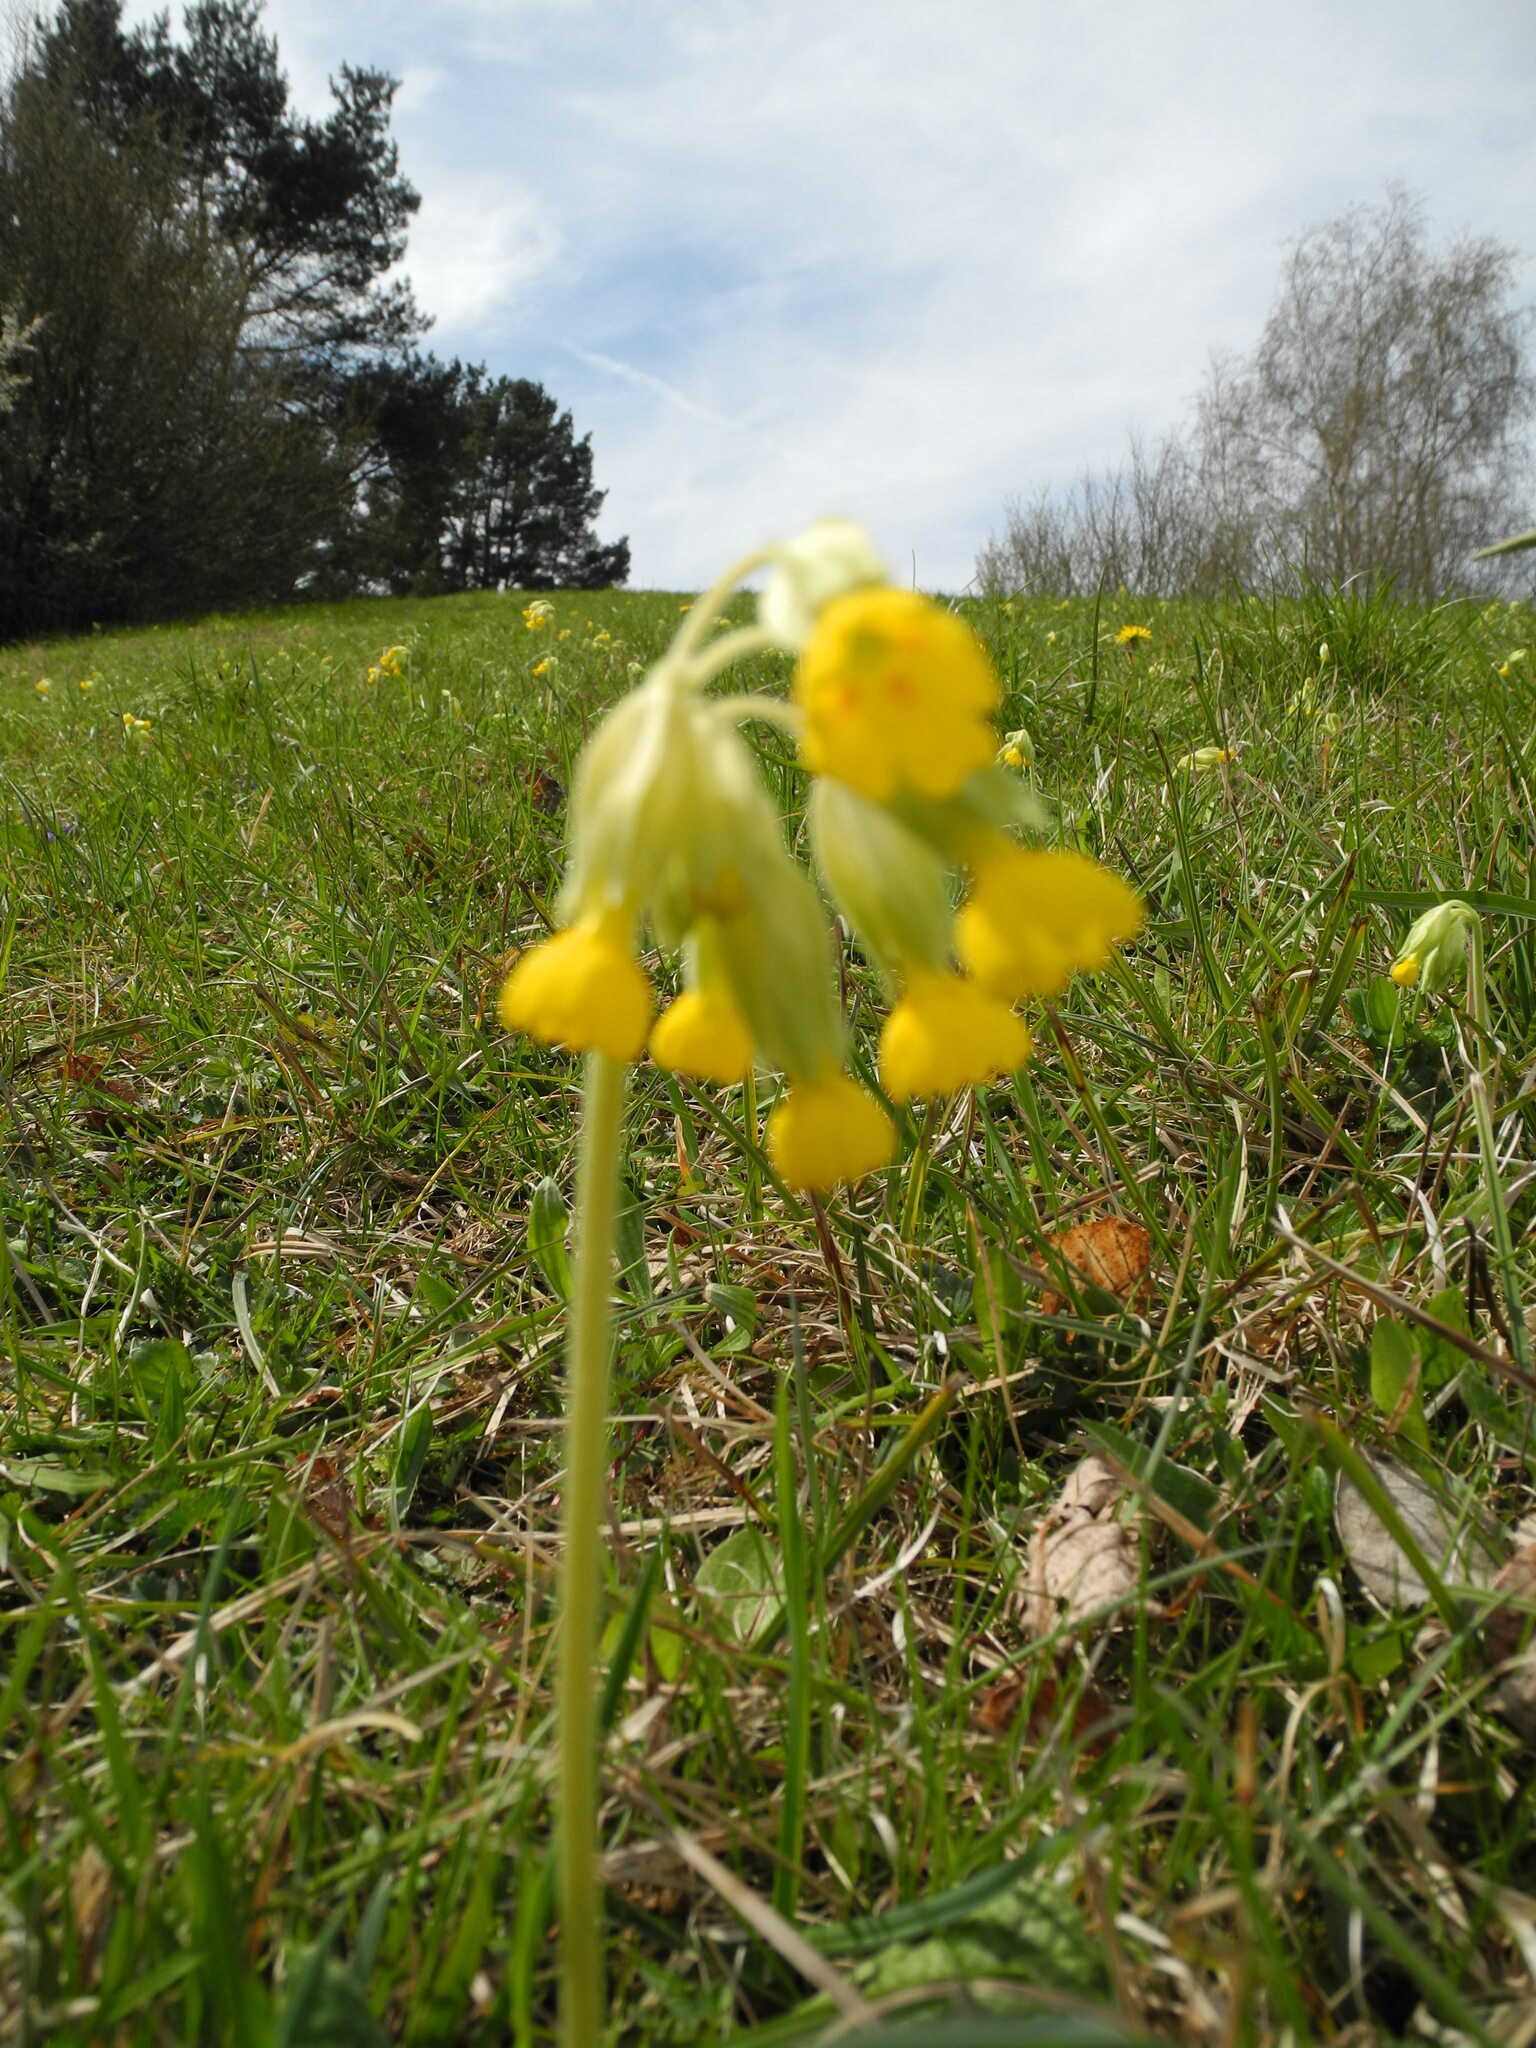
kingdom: Plantae
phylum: Tracheophyta
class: Magnoliopsida
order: Ericales
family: Primulaceae
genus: Primula
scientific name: Primula veris
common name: Cowslip
